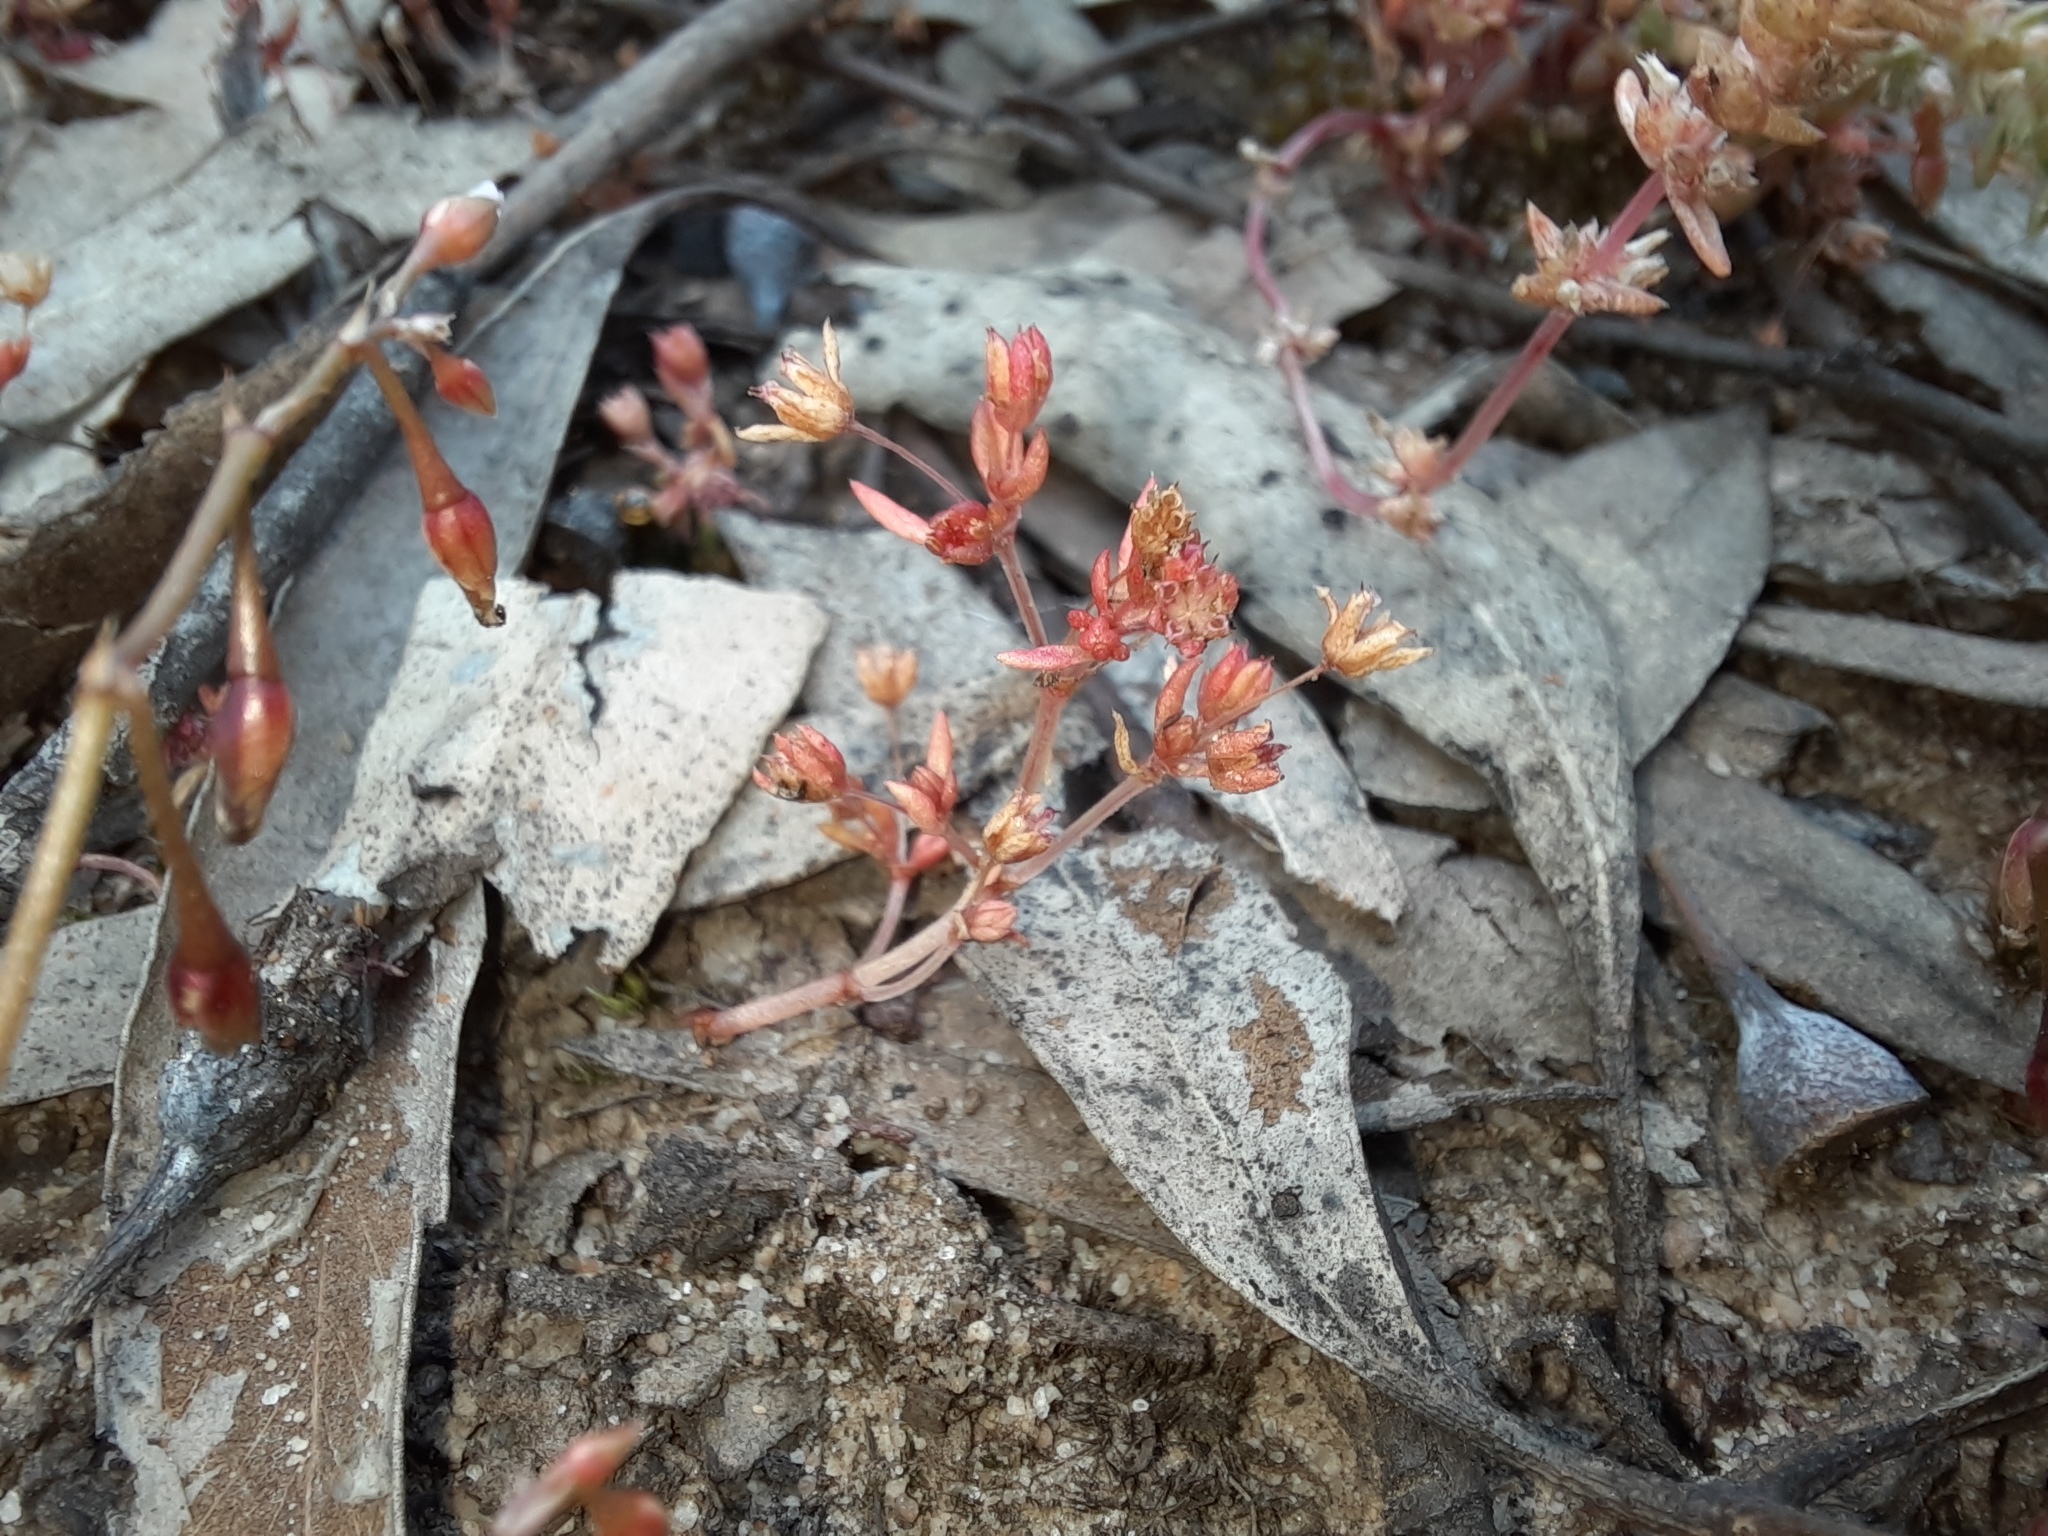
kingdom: Plantae
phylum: Tracheophyta
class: Magnoliopsida
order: Saxifragales
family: Crassulaceae
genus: Crassula
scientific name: Crassula decumbens
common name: Scilly pigmyweed
